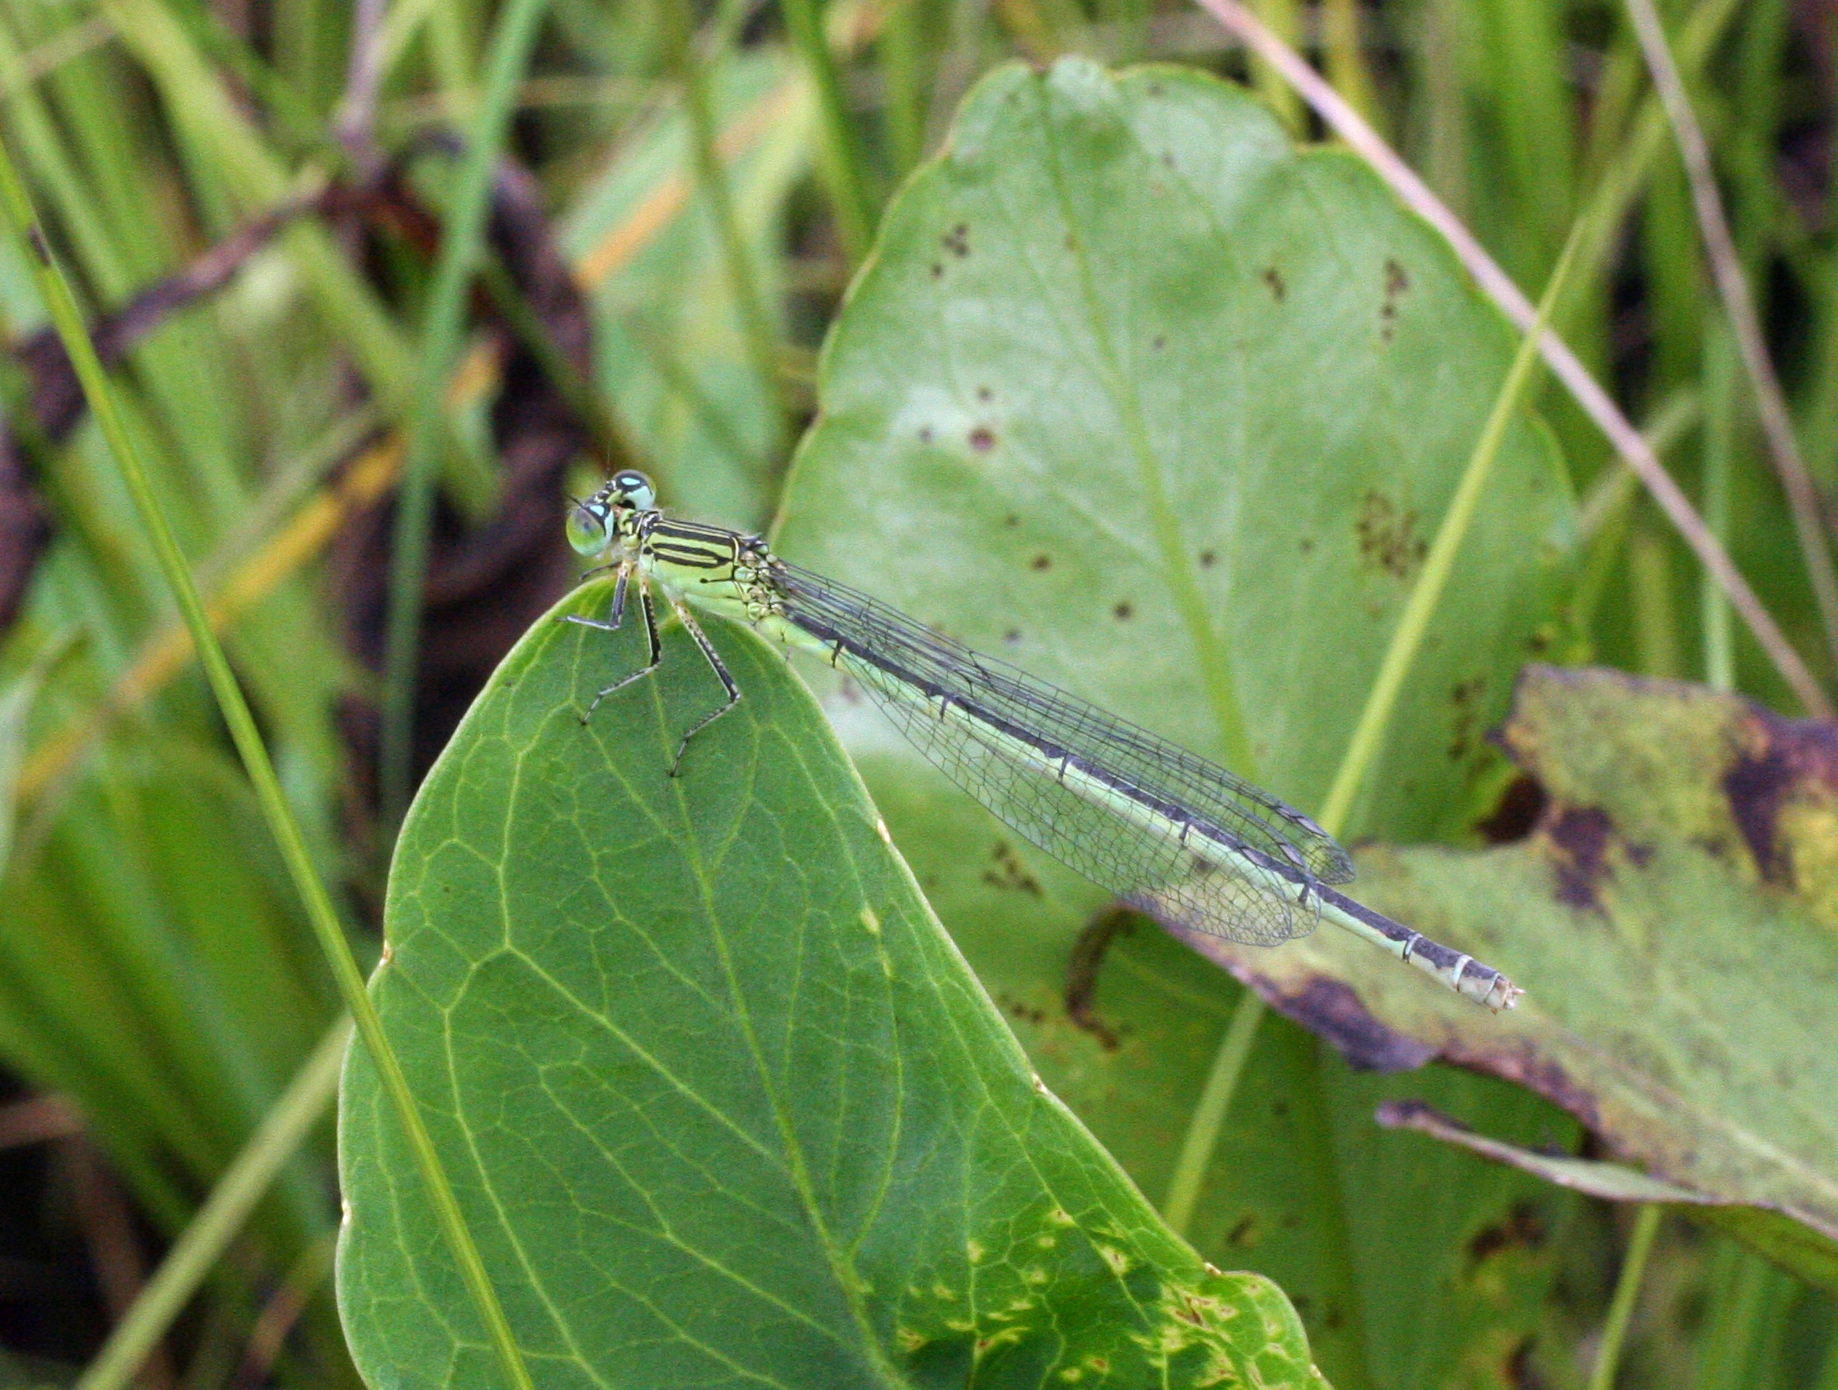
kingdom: Animalia
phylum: Arthropoda
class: Insecta
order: Odonata
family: Coenagrionidae
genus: Paracercion
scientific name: Paracercion plagiosum
